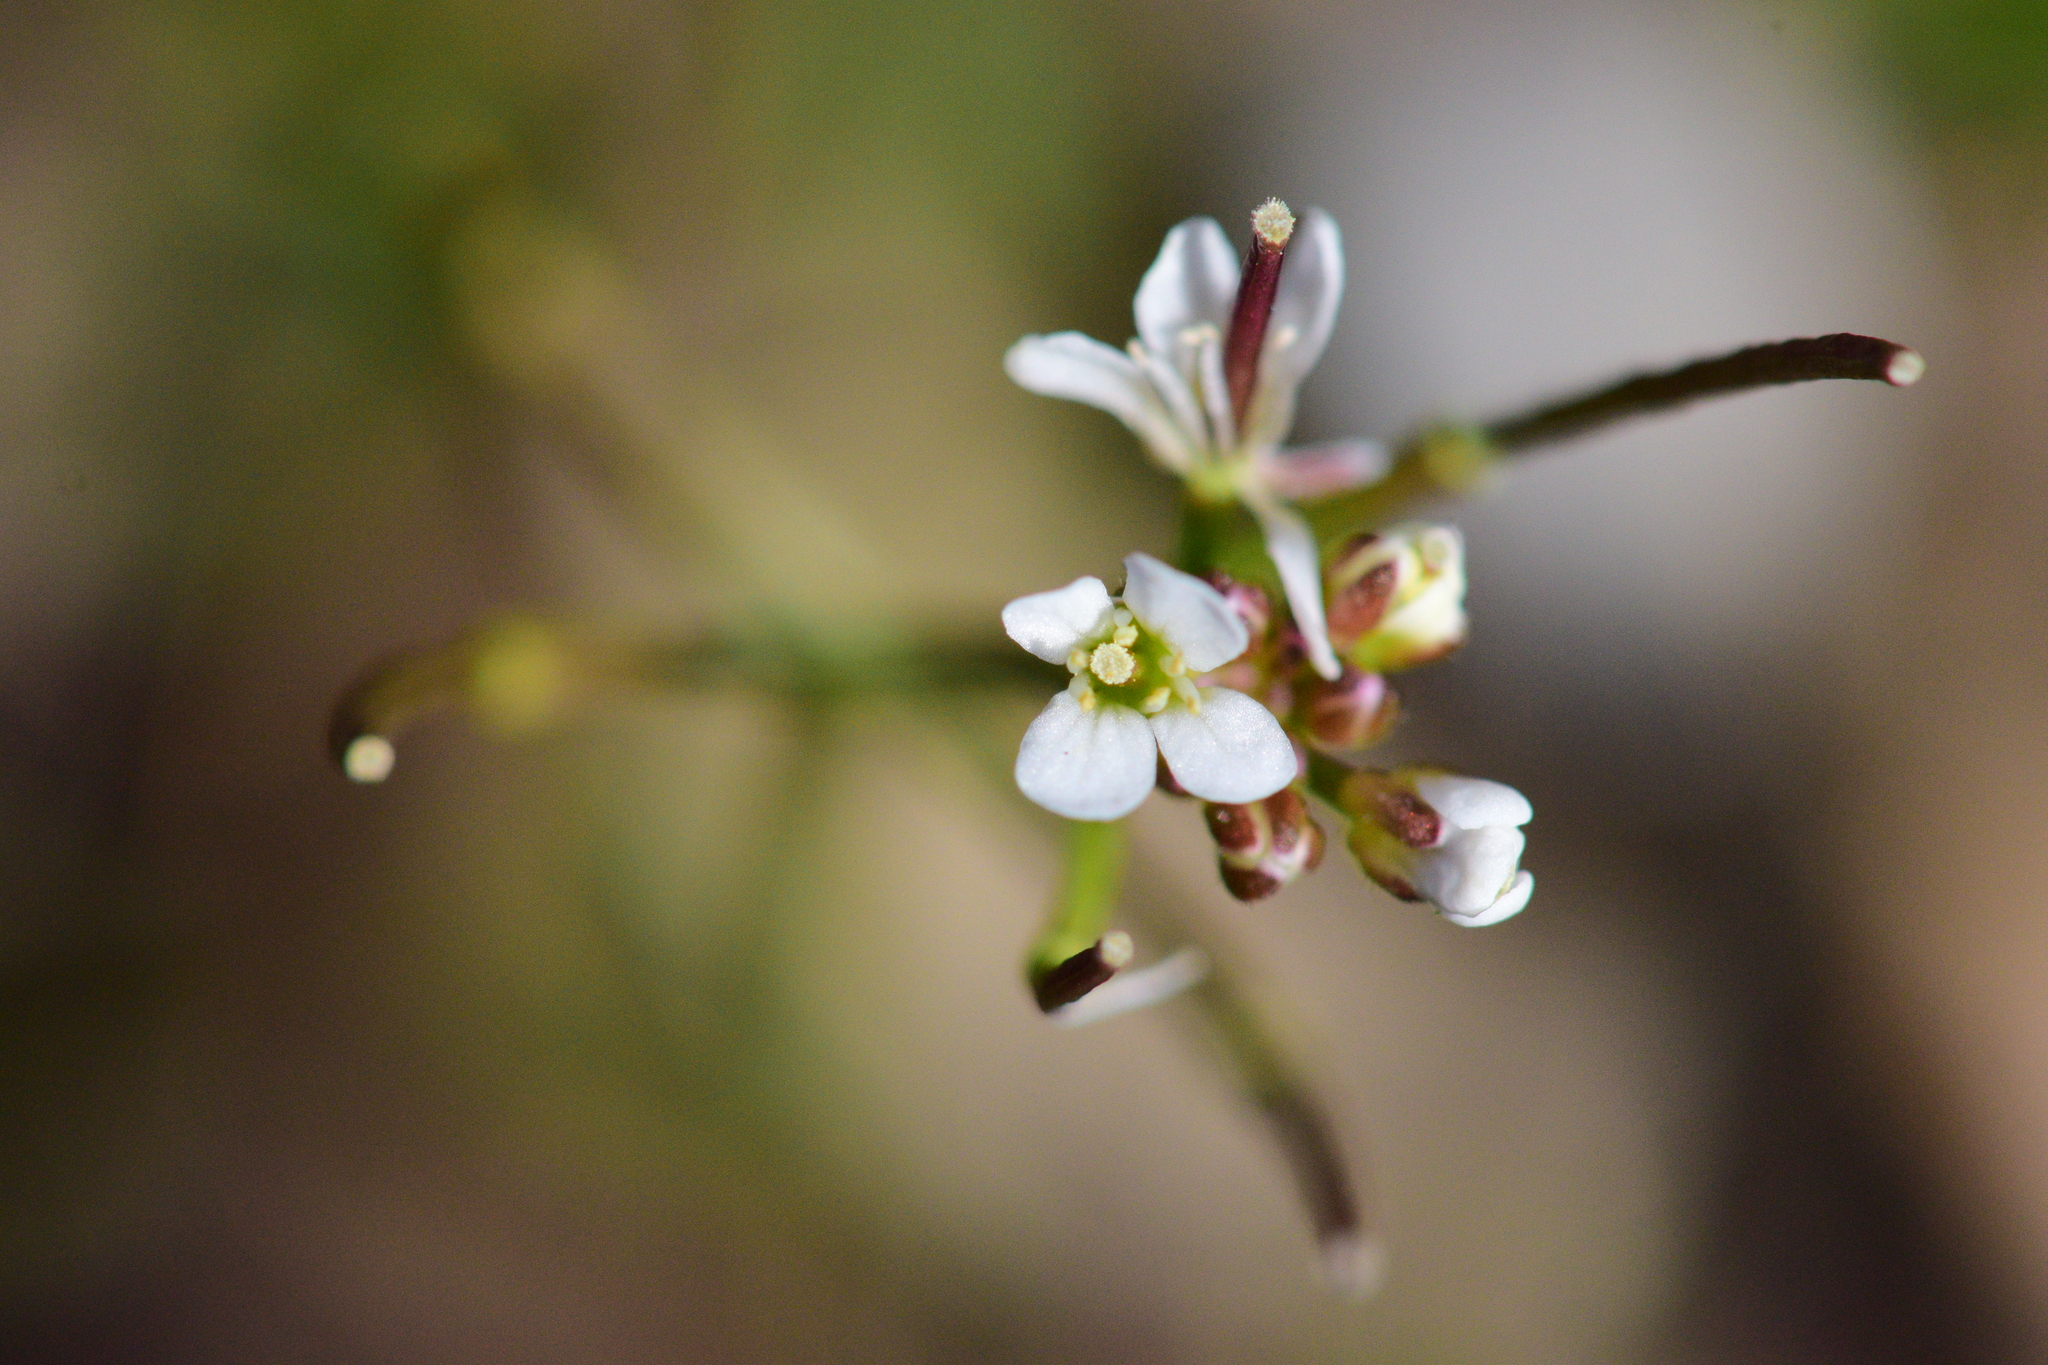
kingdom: Plantae
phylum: Tracheophyta
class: Magnoliopsida
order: Brassicales
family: Brassicaceae
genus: Cardamine
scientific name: Cardamine occulta
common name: Asian wavy bittercress
